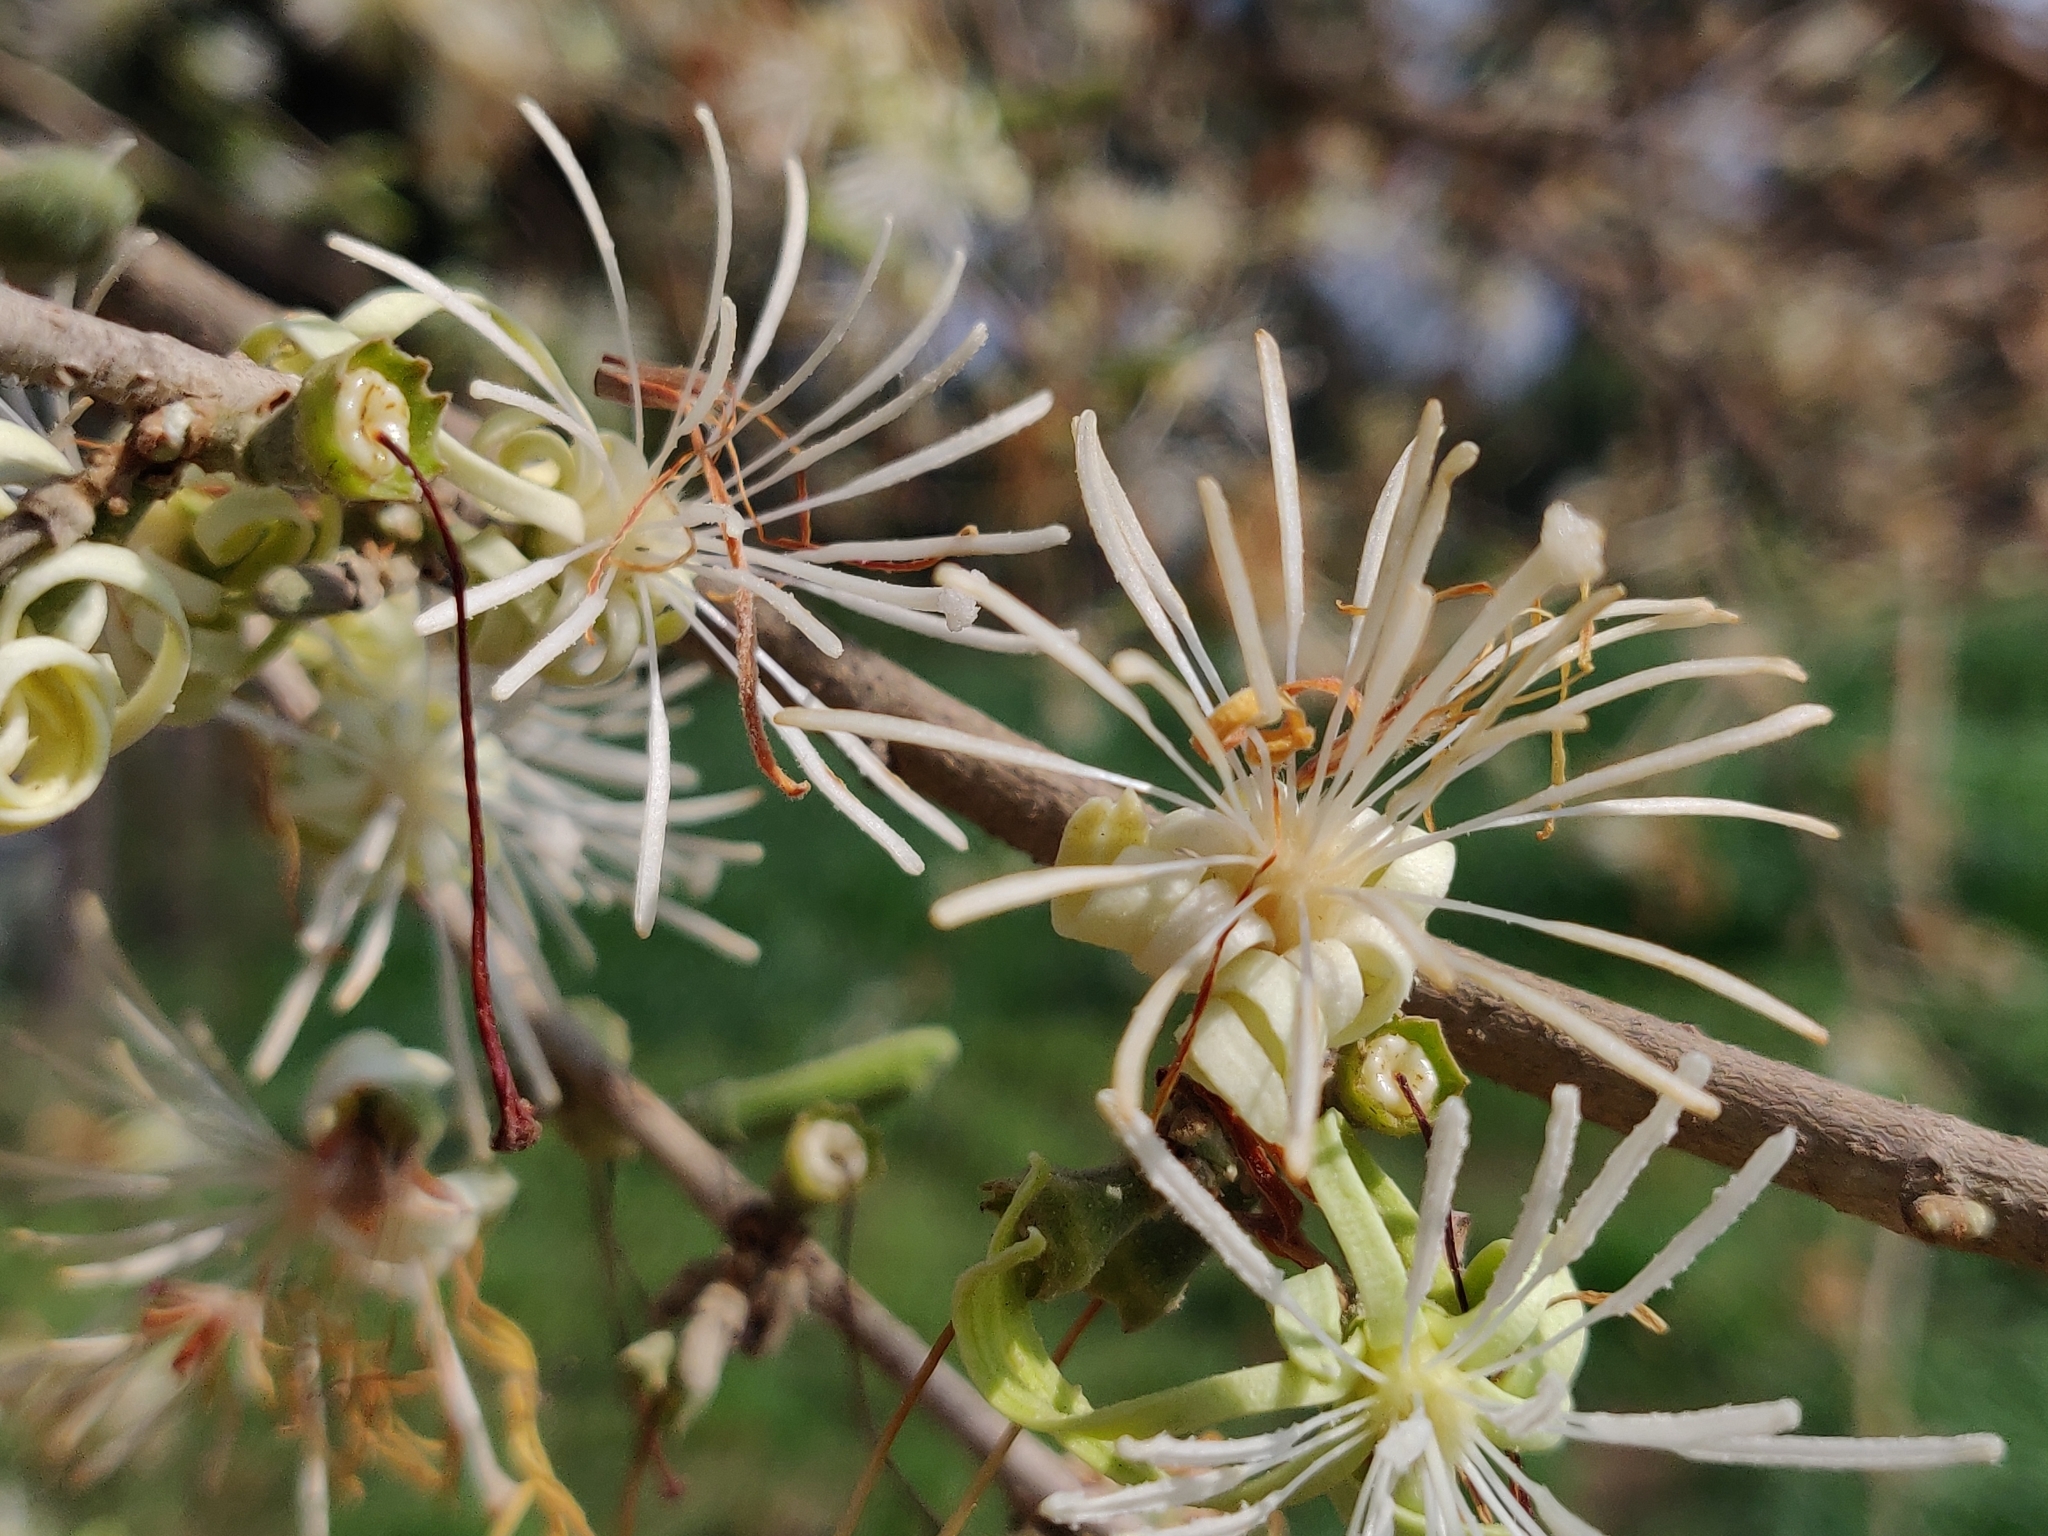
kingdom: Plantae
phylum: Tracheophyta
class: Magnoliopsida
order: Cornales
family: Cornaceae
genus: Alangium
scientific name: Alangium salviifolium
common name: Sage-leaf alangium
